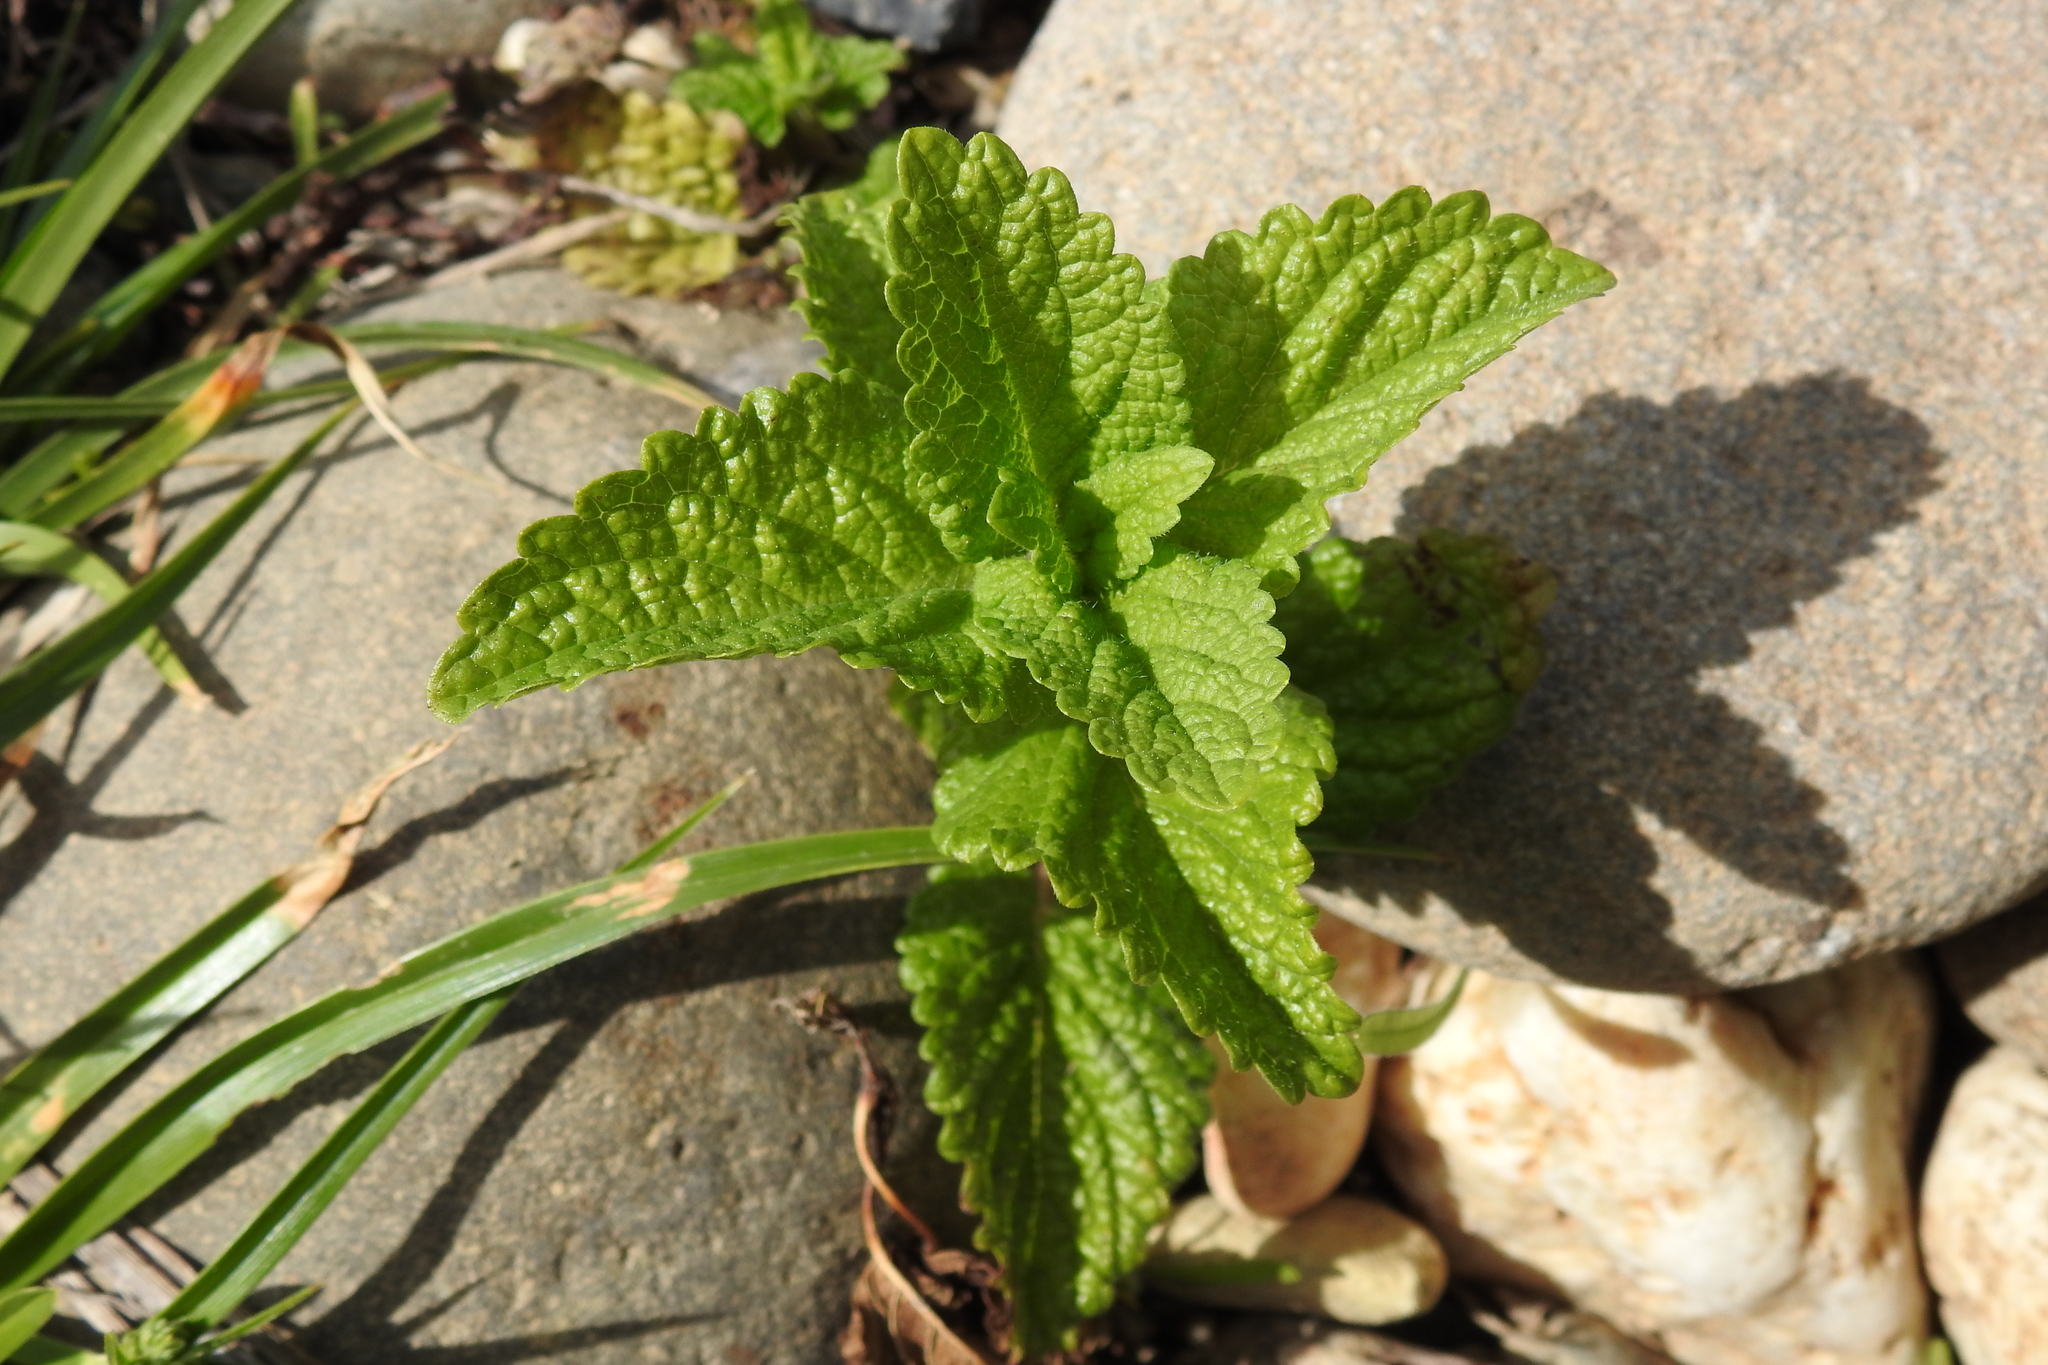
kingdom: Plantae
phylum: Tracheophyta
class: Magnoliopsida
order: Lamiales
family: Lamiaceae
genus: Melissa
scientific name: Melissa officinalis
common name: Balm
